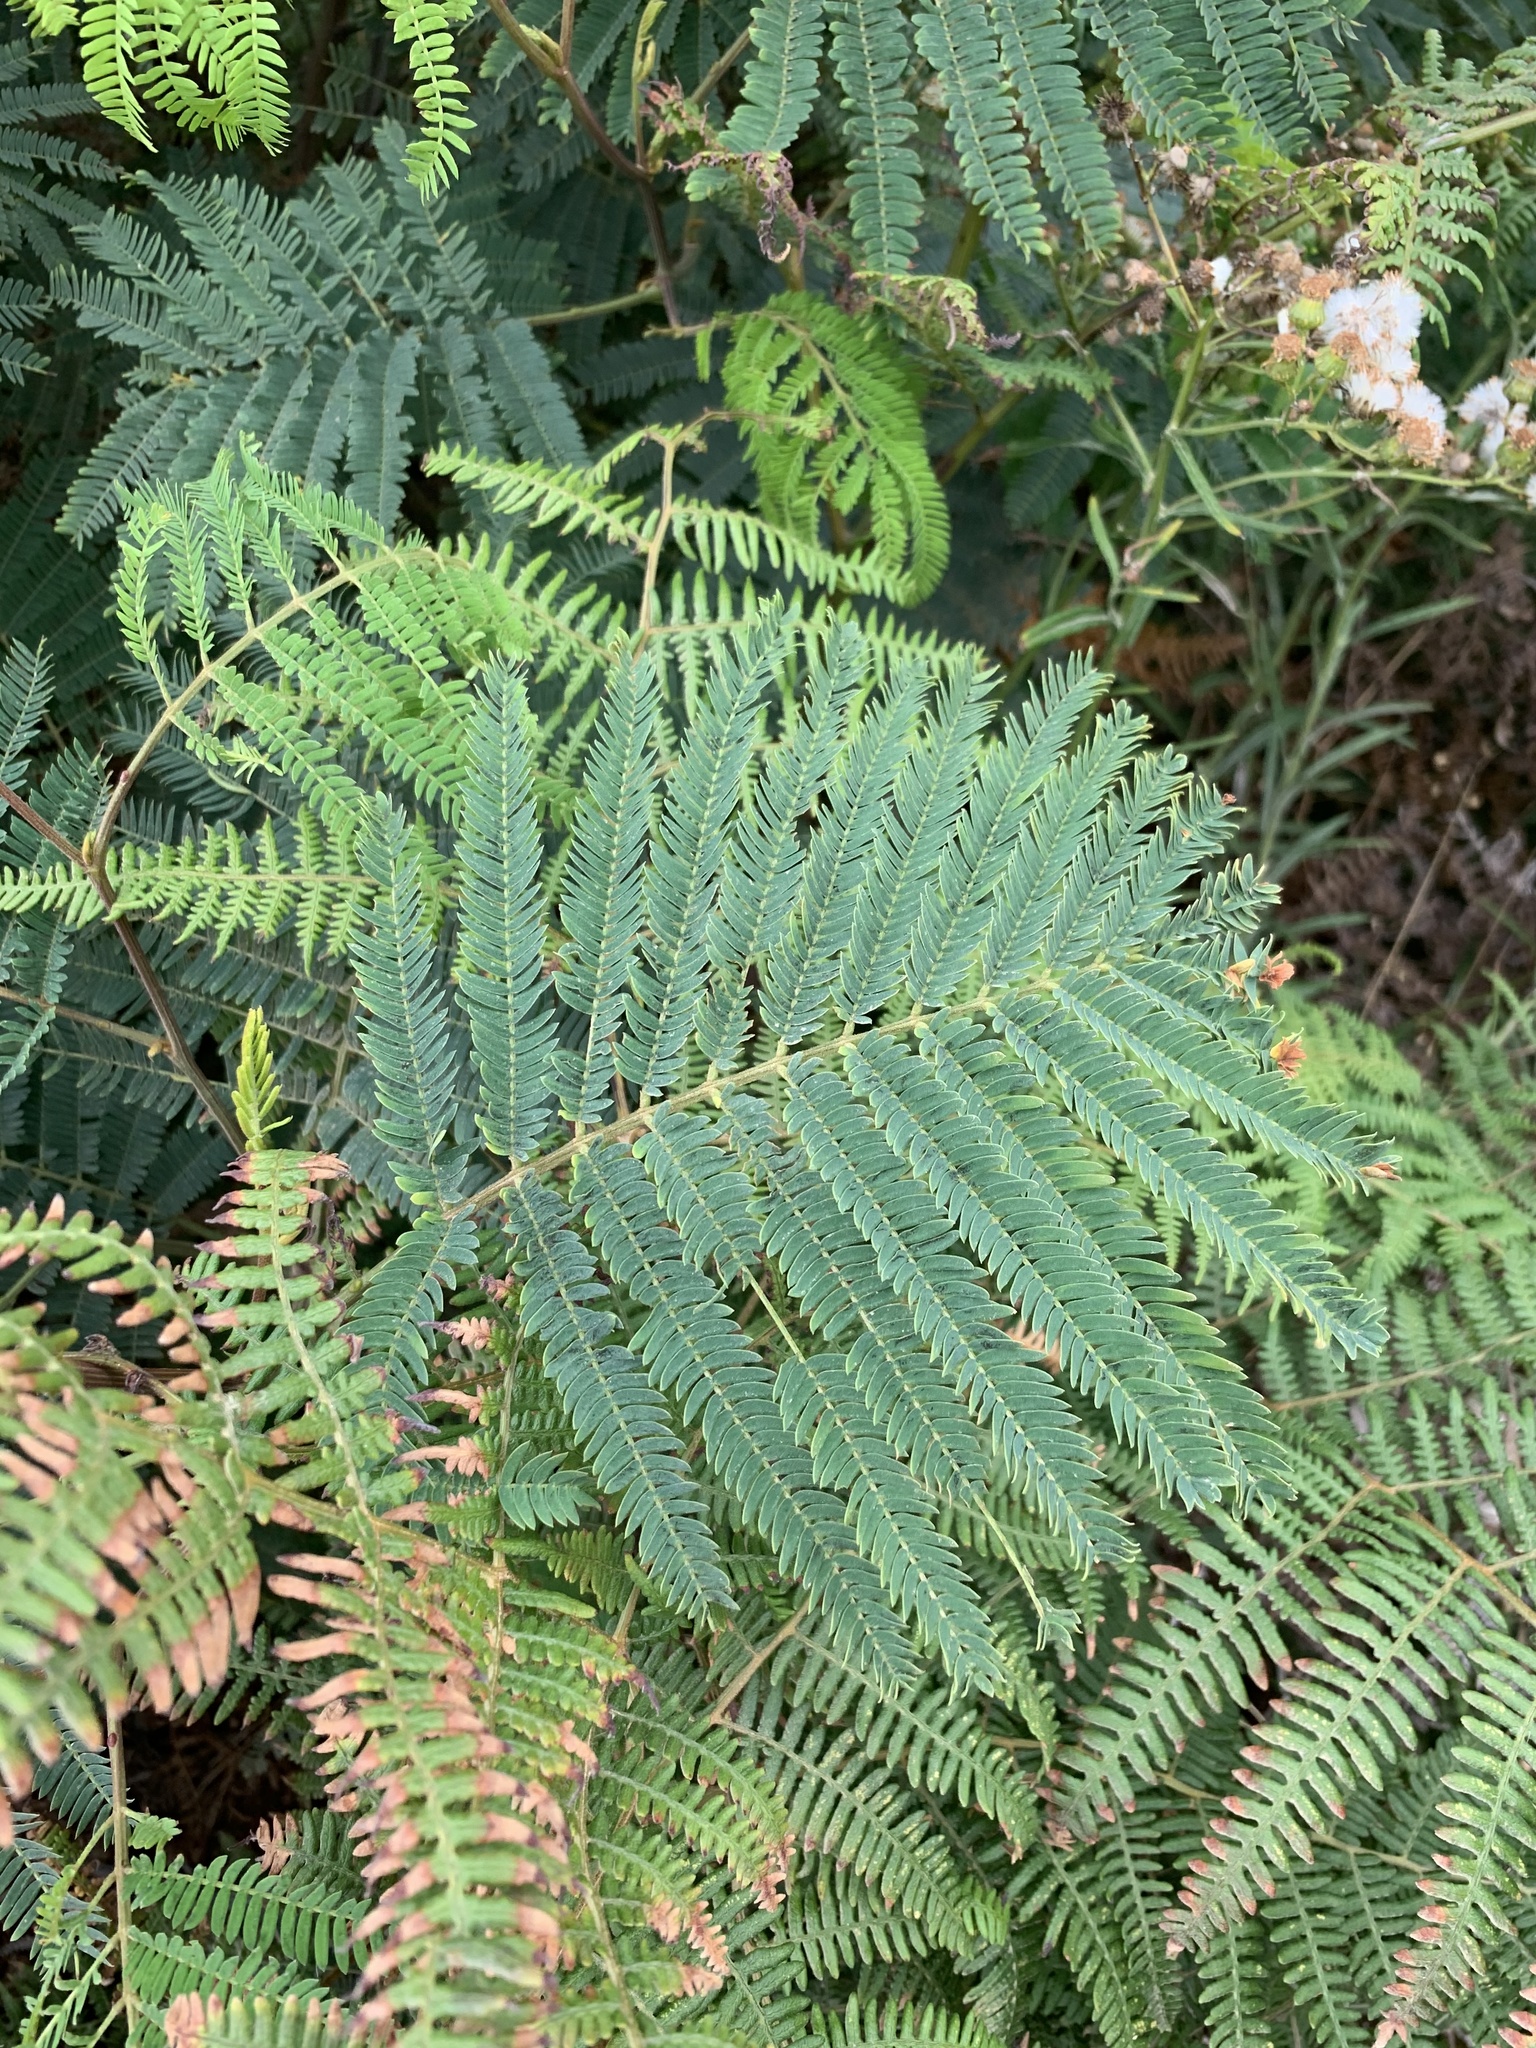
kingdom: Plantae
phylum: Tracheophyta
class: Magnoliopsida
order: Fabales
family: Fabaceae
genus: Paraserianthes
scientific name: Paraserianthes lophantha
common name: Plume albizia
